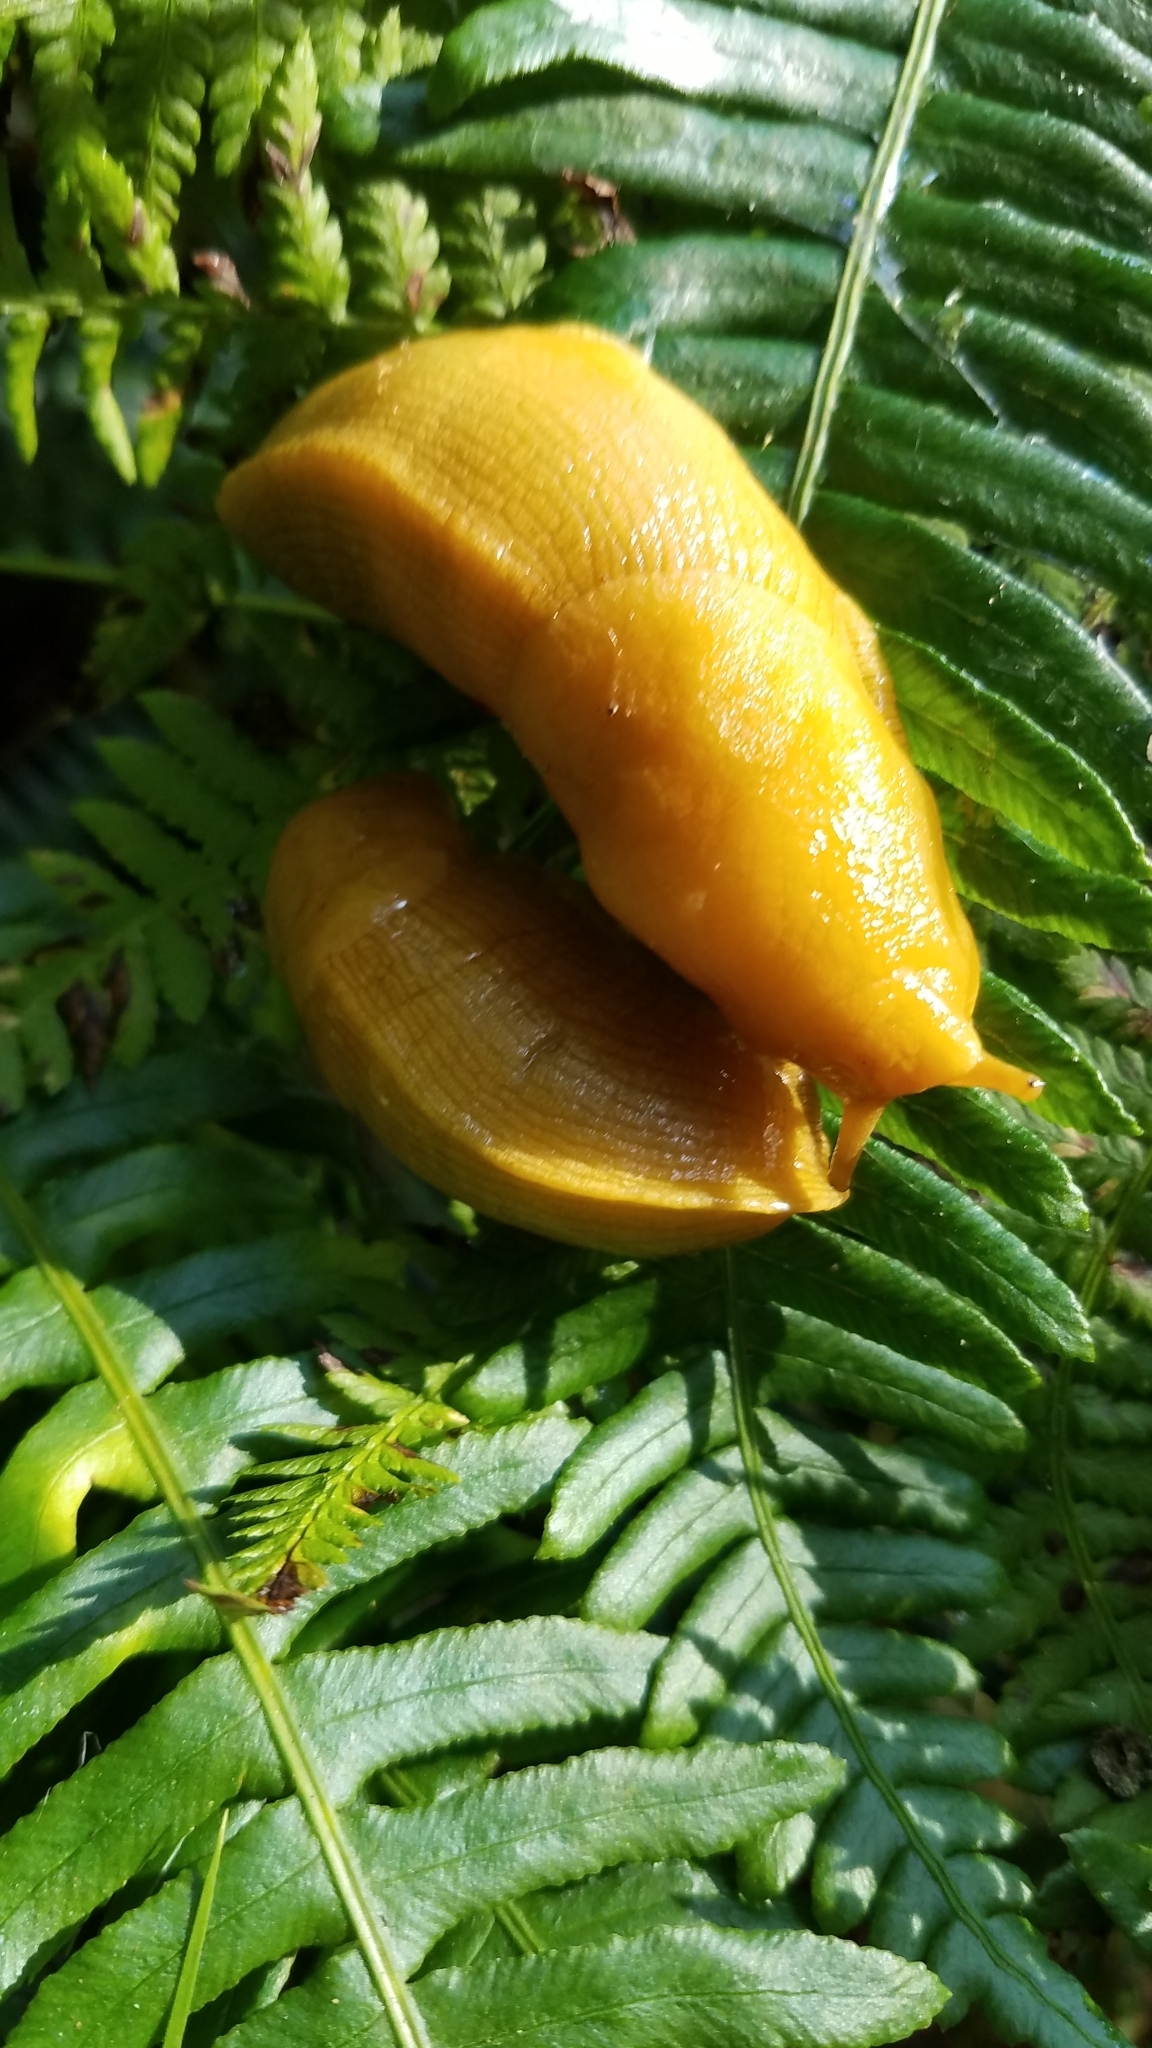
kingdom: Animalia
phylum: Mollusca
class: Gastropoda
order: Stylommatophora
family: Ariolimacidae
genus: Ariolimax
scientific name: Ariolimax columbianus
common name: Pacific banana slug
